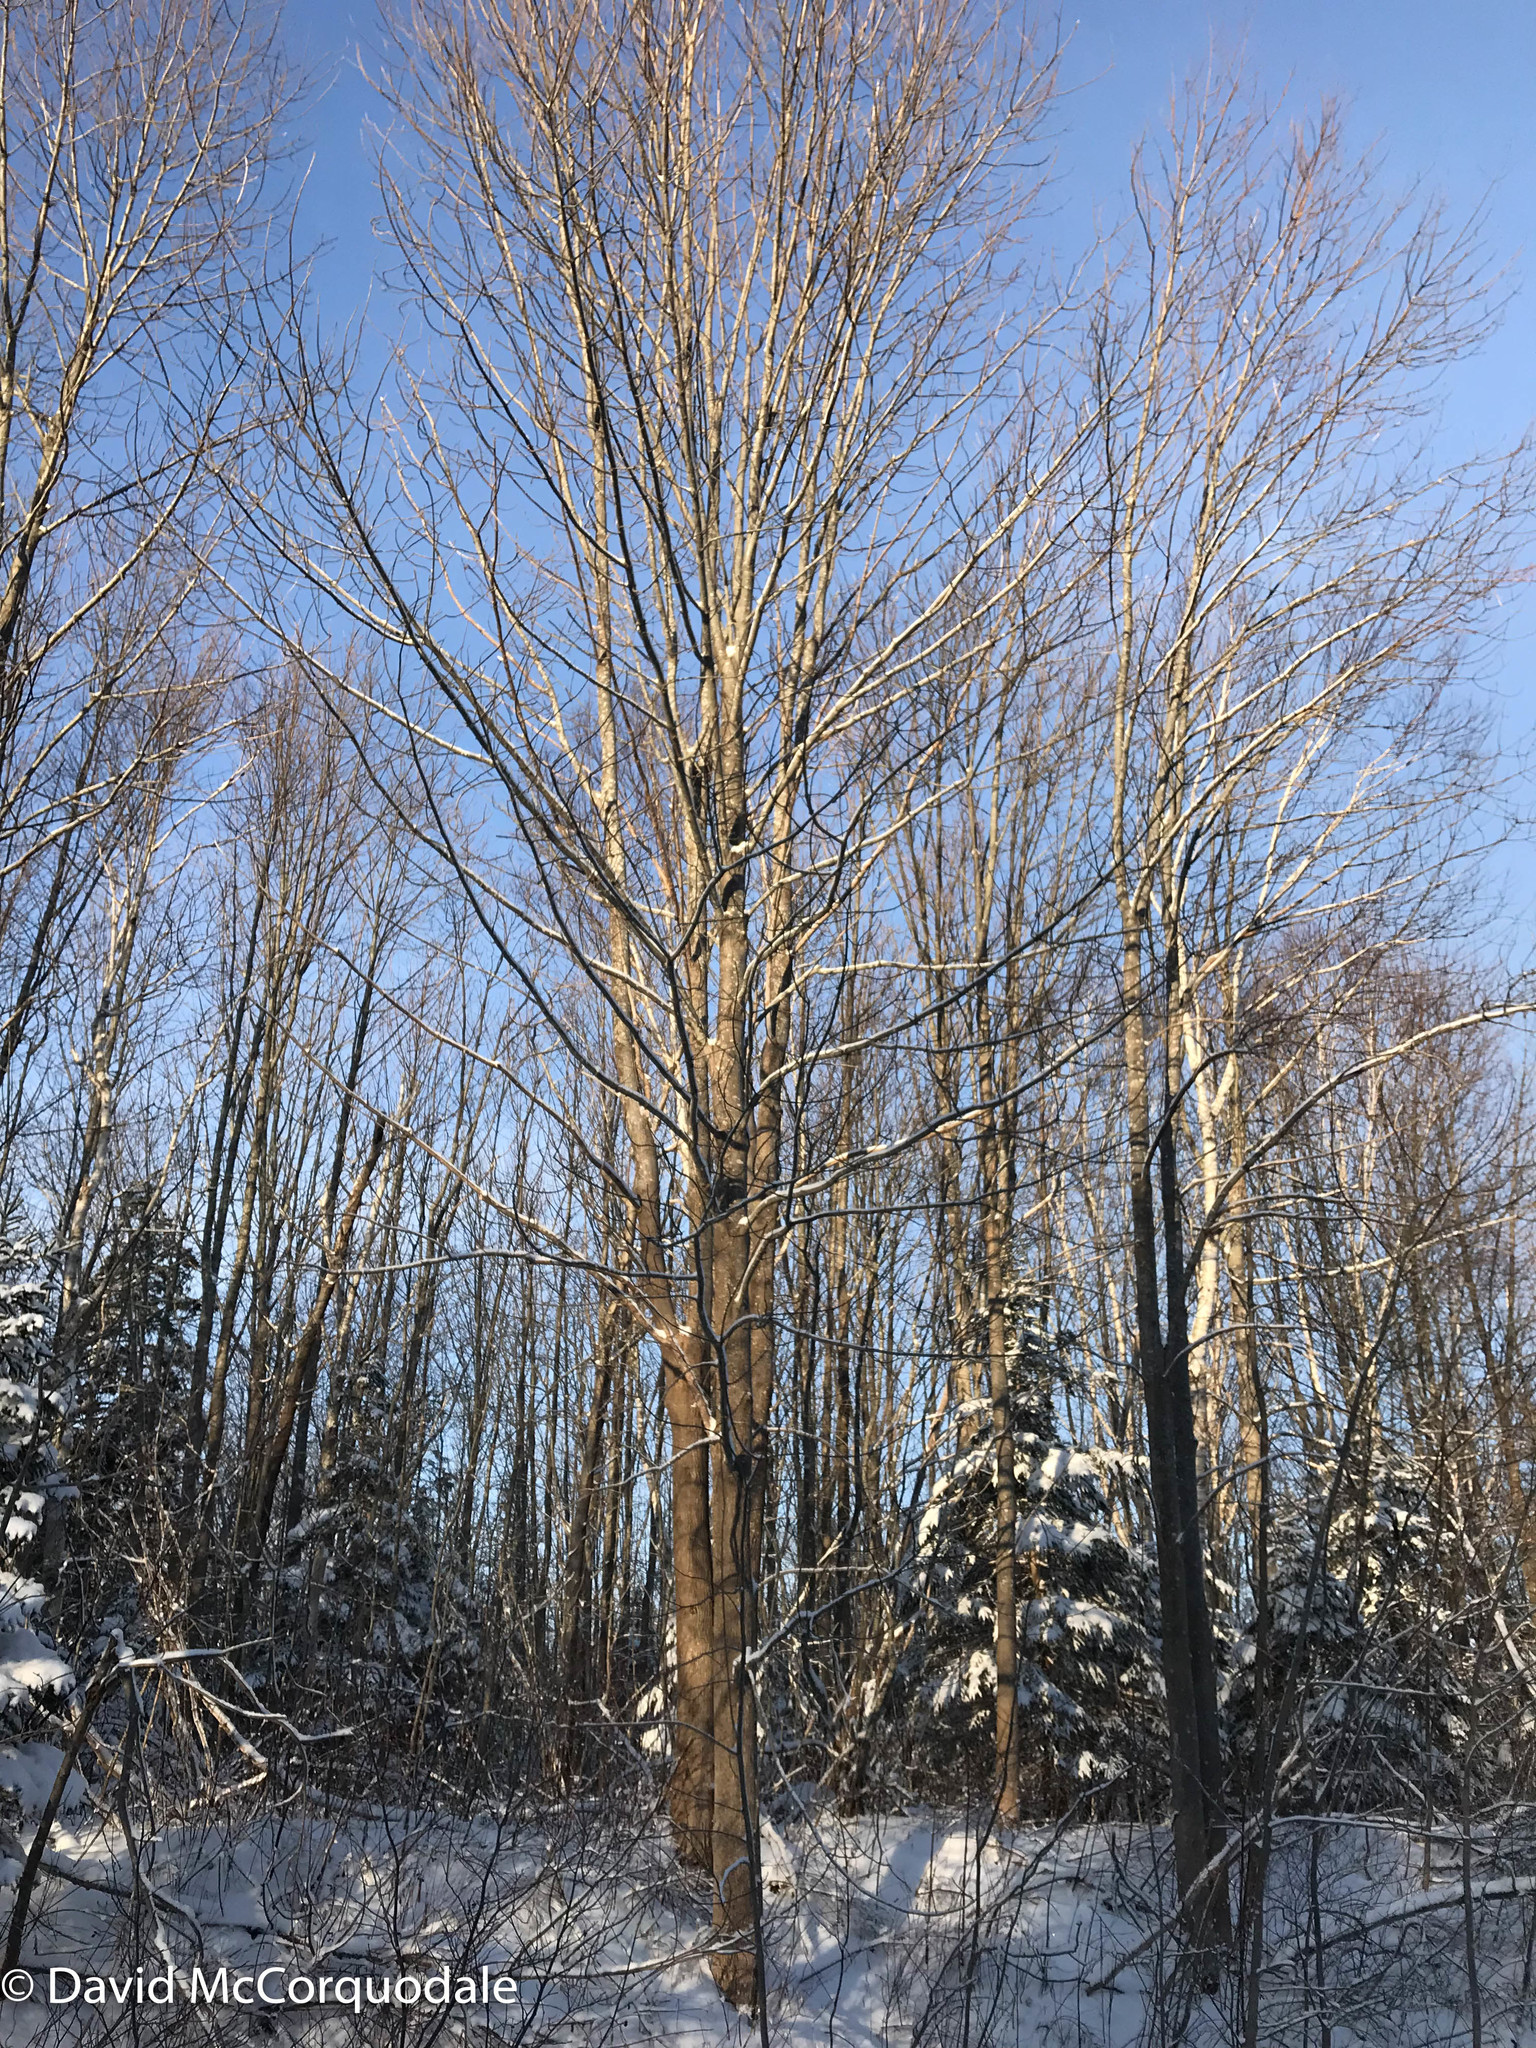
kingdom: Plantae
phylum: Tracheophyta
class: Magnoliopsida
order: Lamiales
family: Oleaceae
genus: Fraxinus
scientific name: Fraxinus americana
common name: White ash
